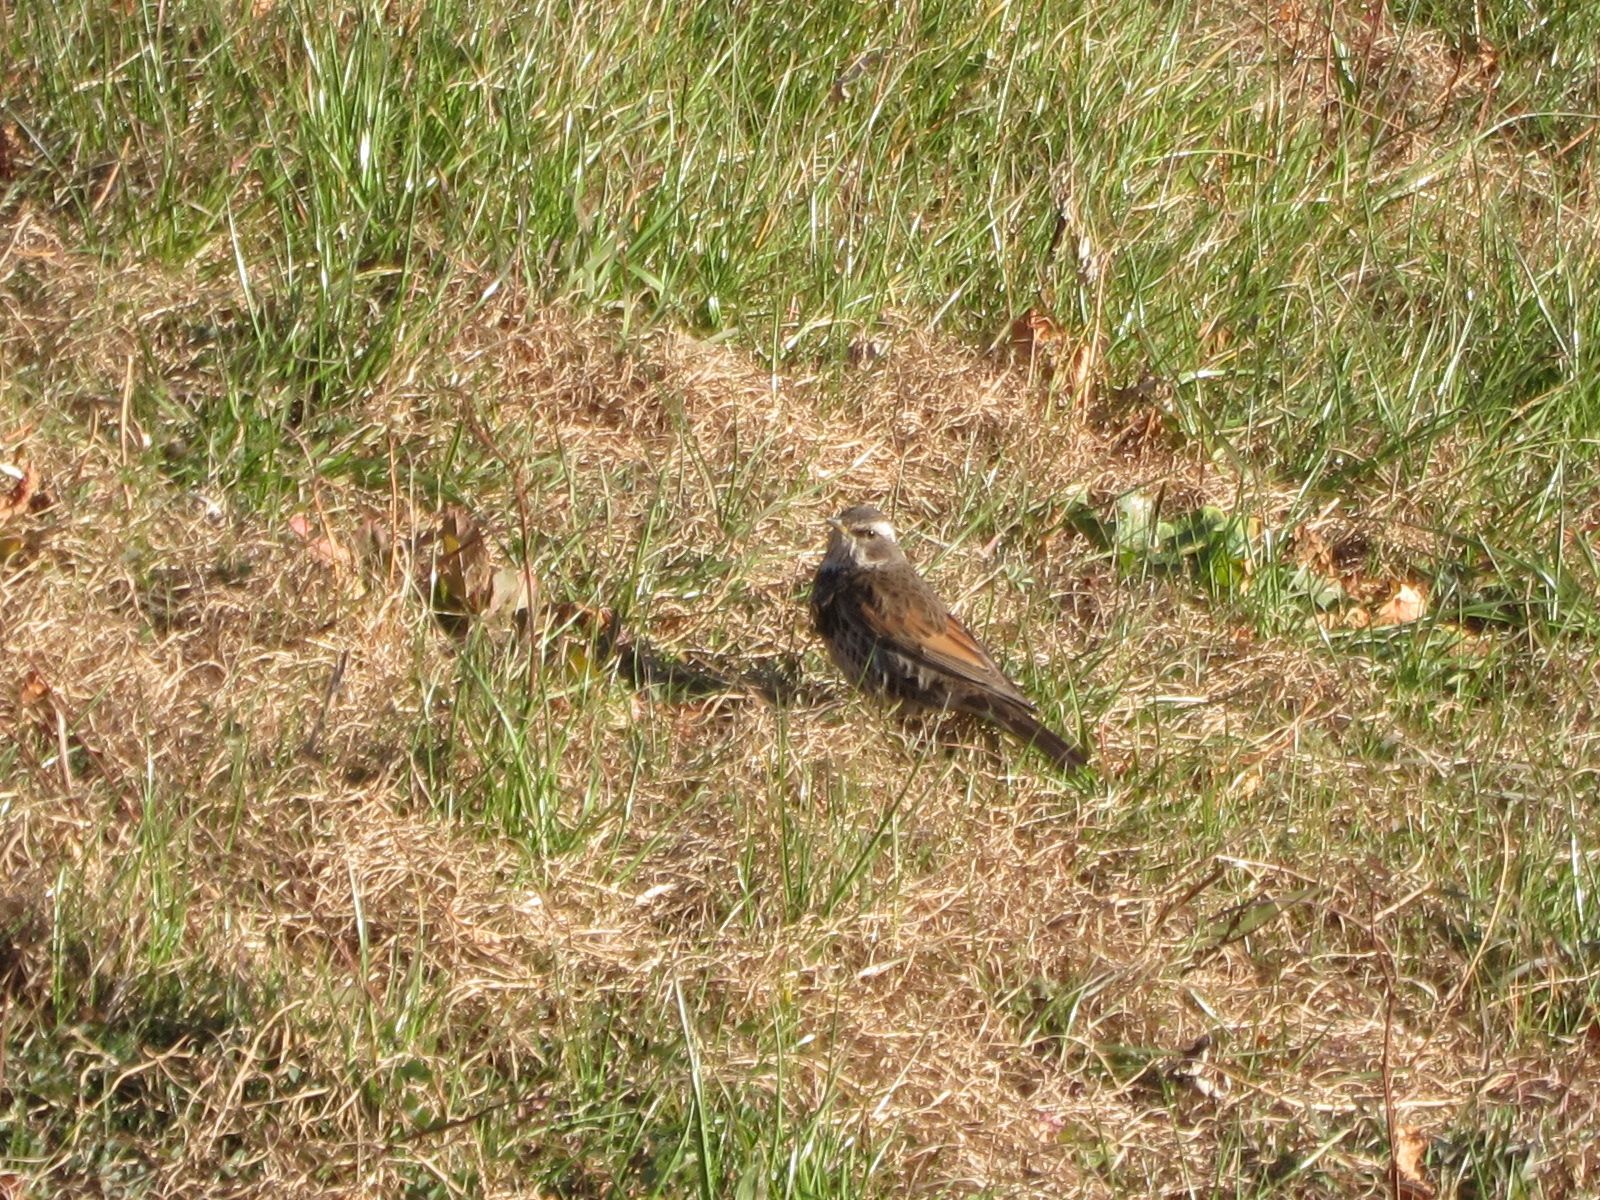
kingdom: Animalia
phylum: Chordata
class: Aves
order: Passeriformes
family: Turdidae
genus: Turdus
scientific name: Turdus eunomus
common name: Dusky thrush
